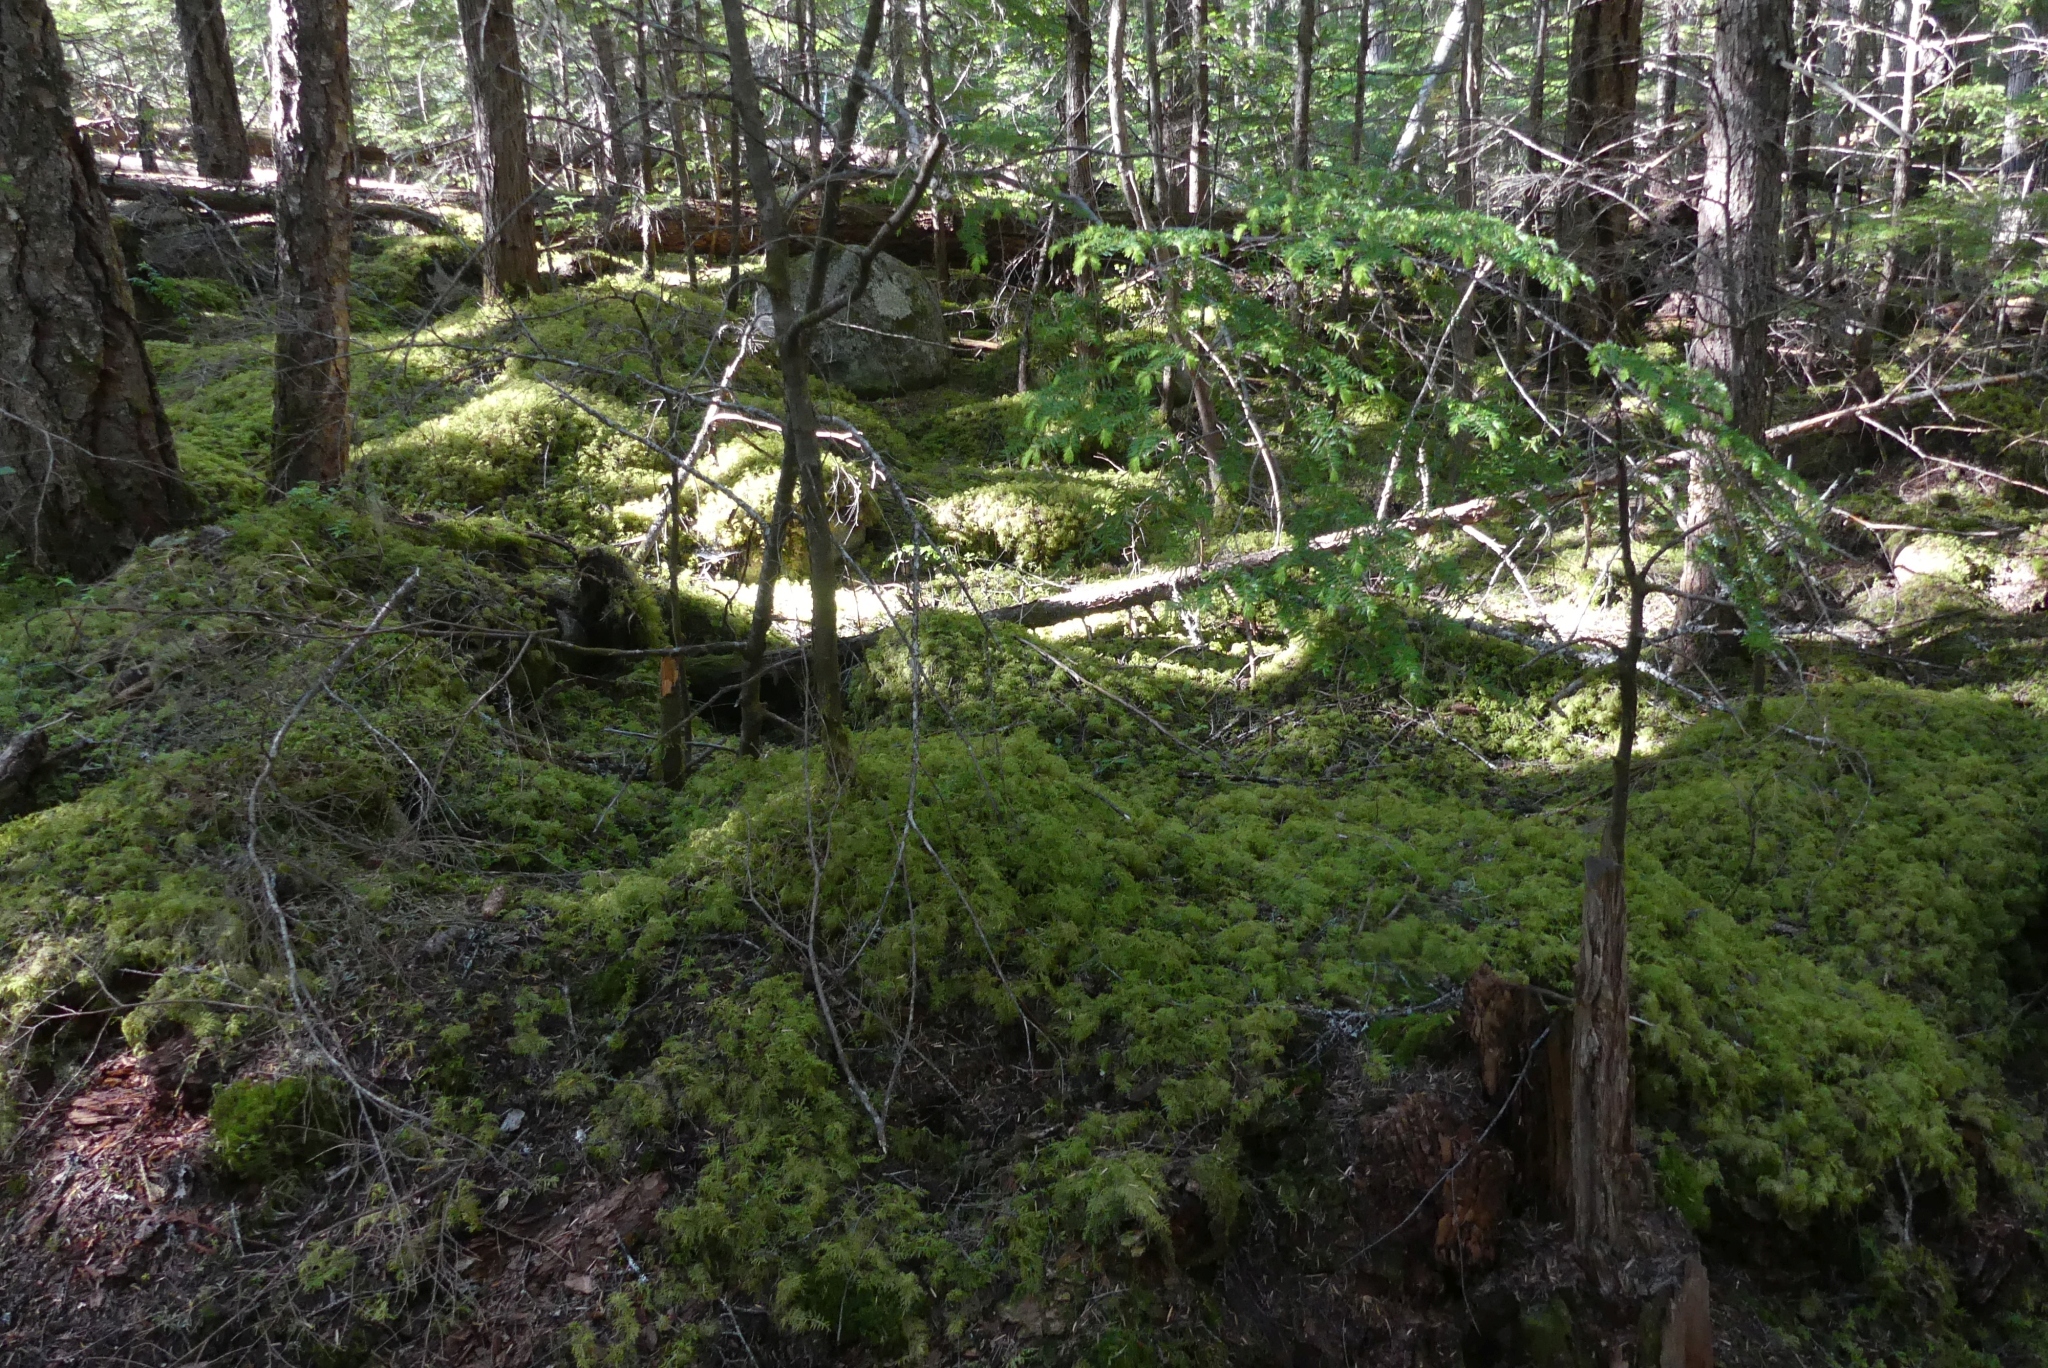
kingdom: Plantae
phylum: Bryophyta
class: Bryopsida
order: Hypnales
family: Hylocomiaceae
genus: Hylocomium
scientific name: Hylocomium splendens
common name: Stairstep moss
